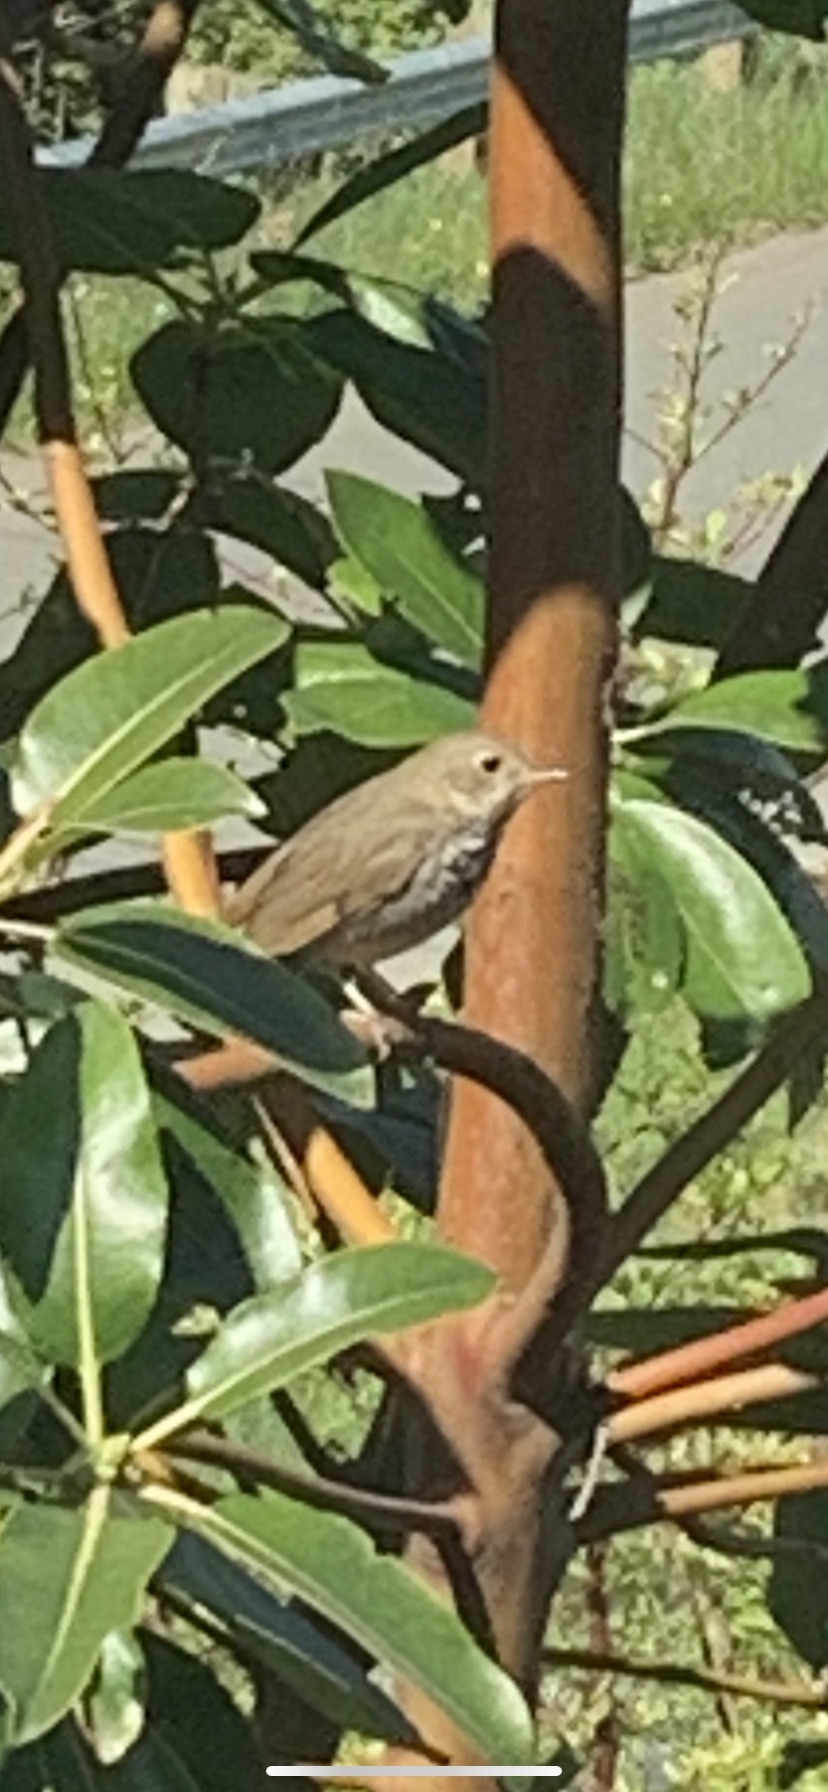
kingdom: Animalia
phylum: Chordata
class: Aves
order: Passeriformes
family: Turdidae
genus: Catharus
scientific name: Catharus guttatus
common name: Hermit thrush
